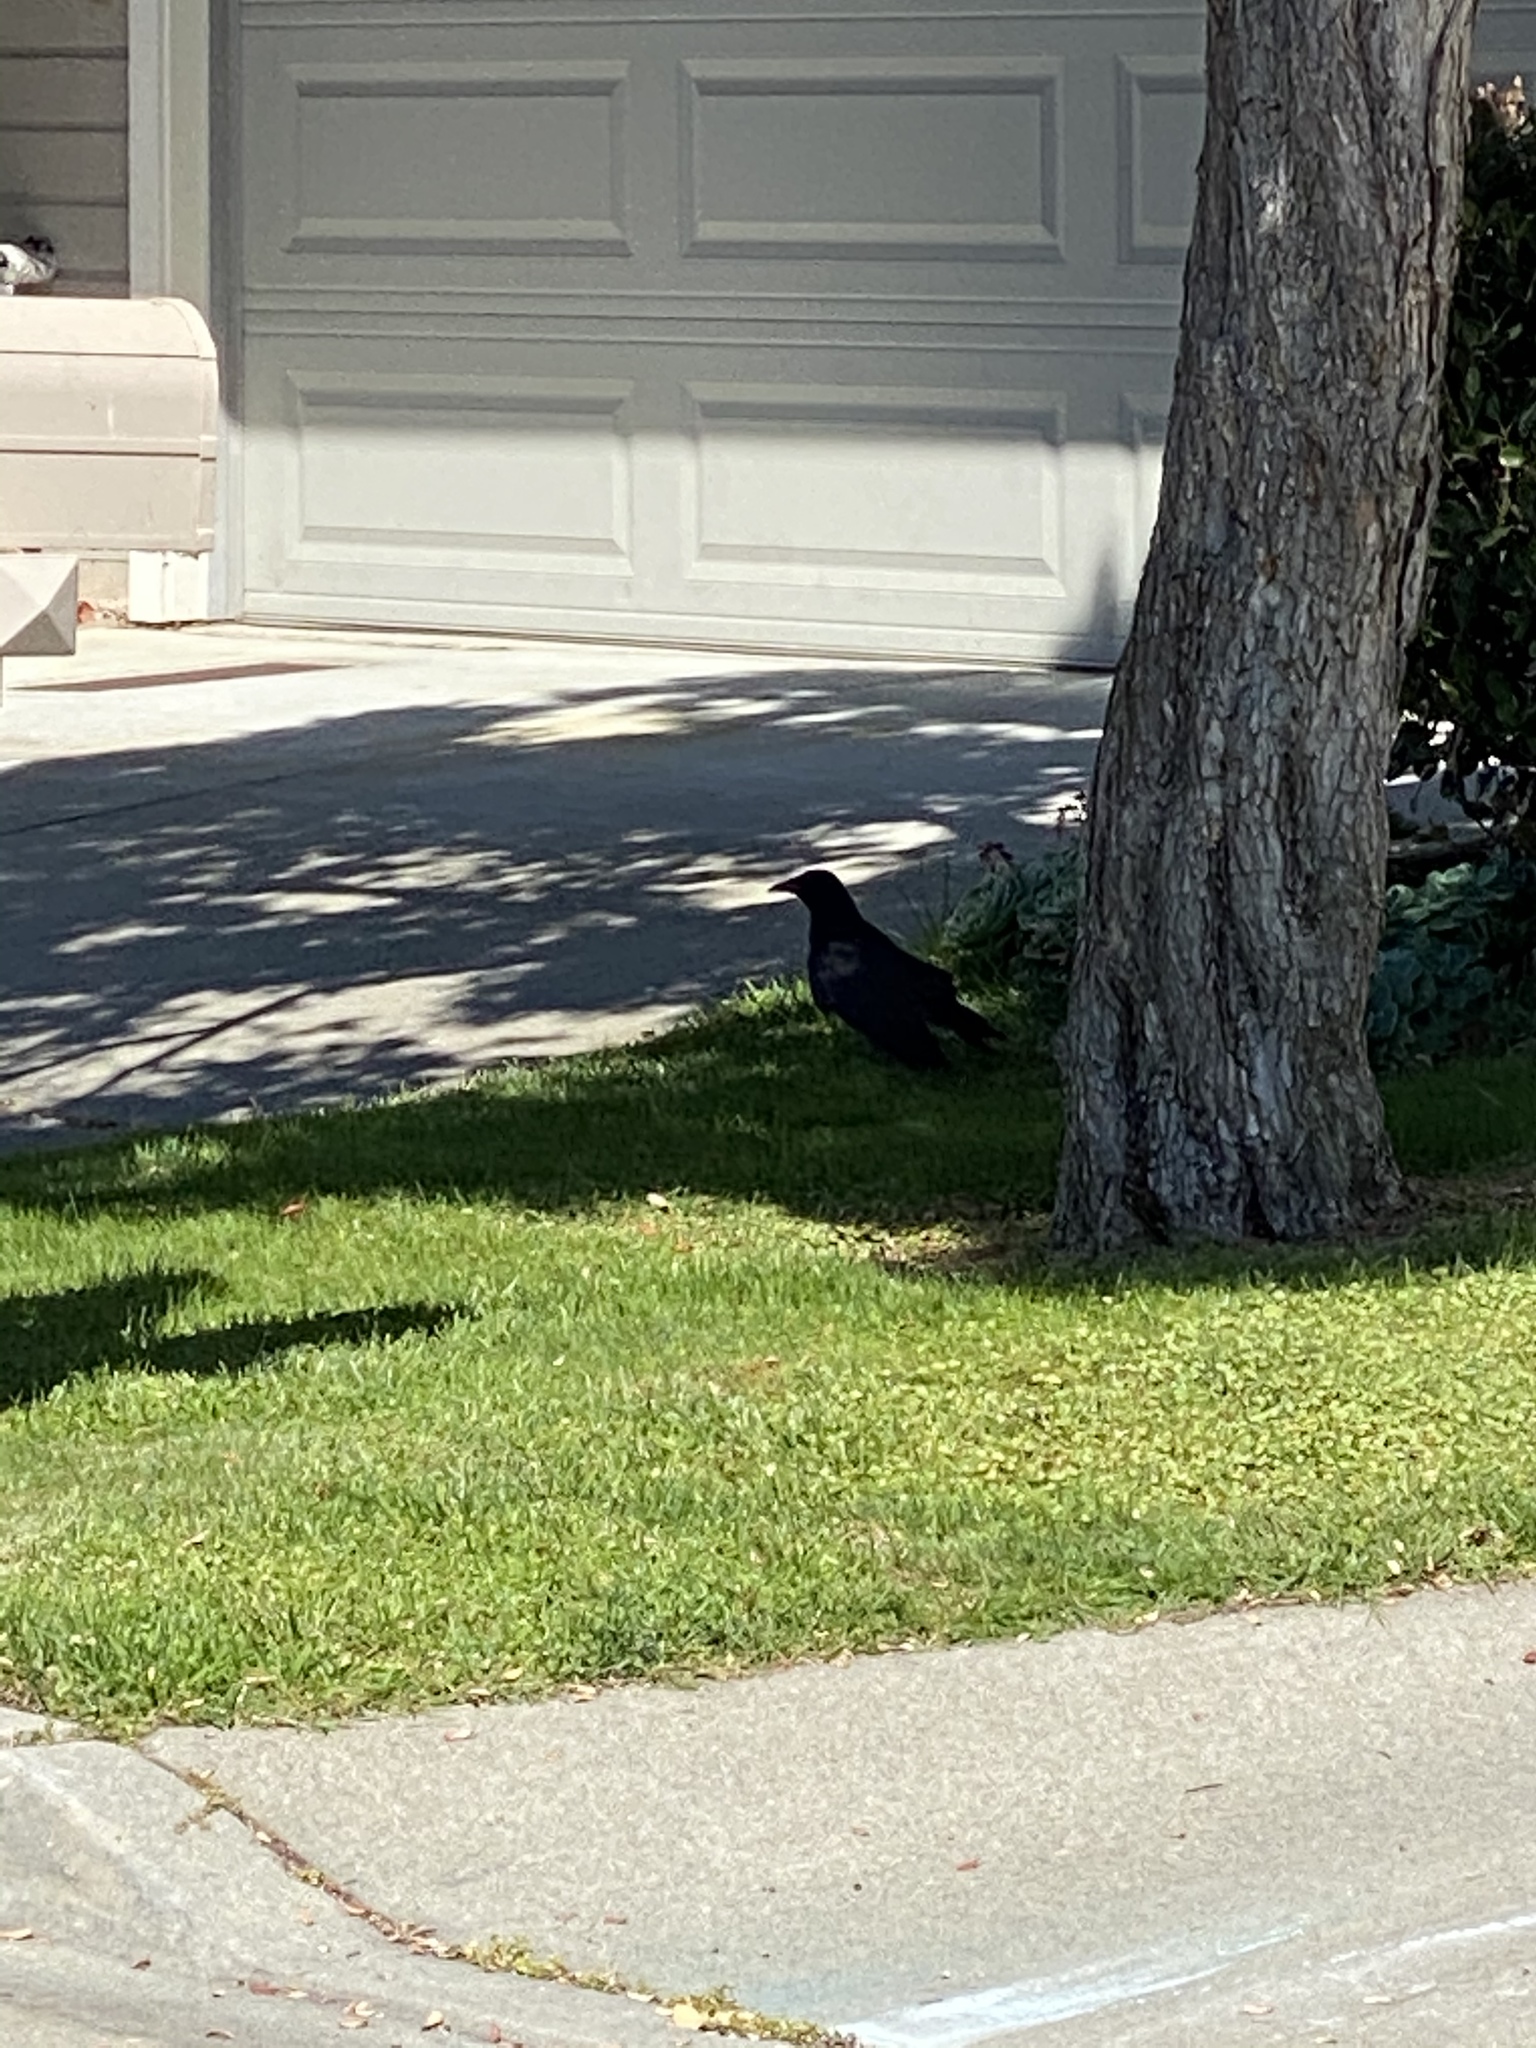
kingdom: Animalia
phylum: Chordata
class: Aves
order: Passeriformes
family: Corvidae
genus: Corvus
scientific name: Corvus brachyrhynchos
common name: American crow
